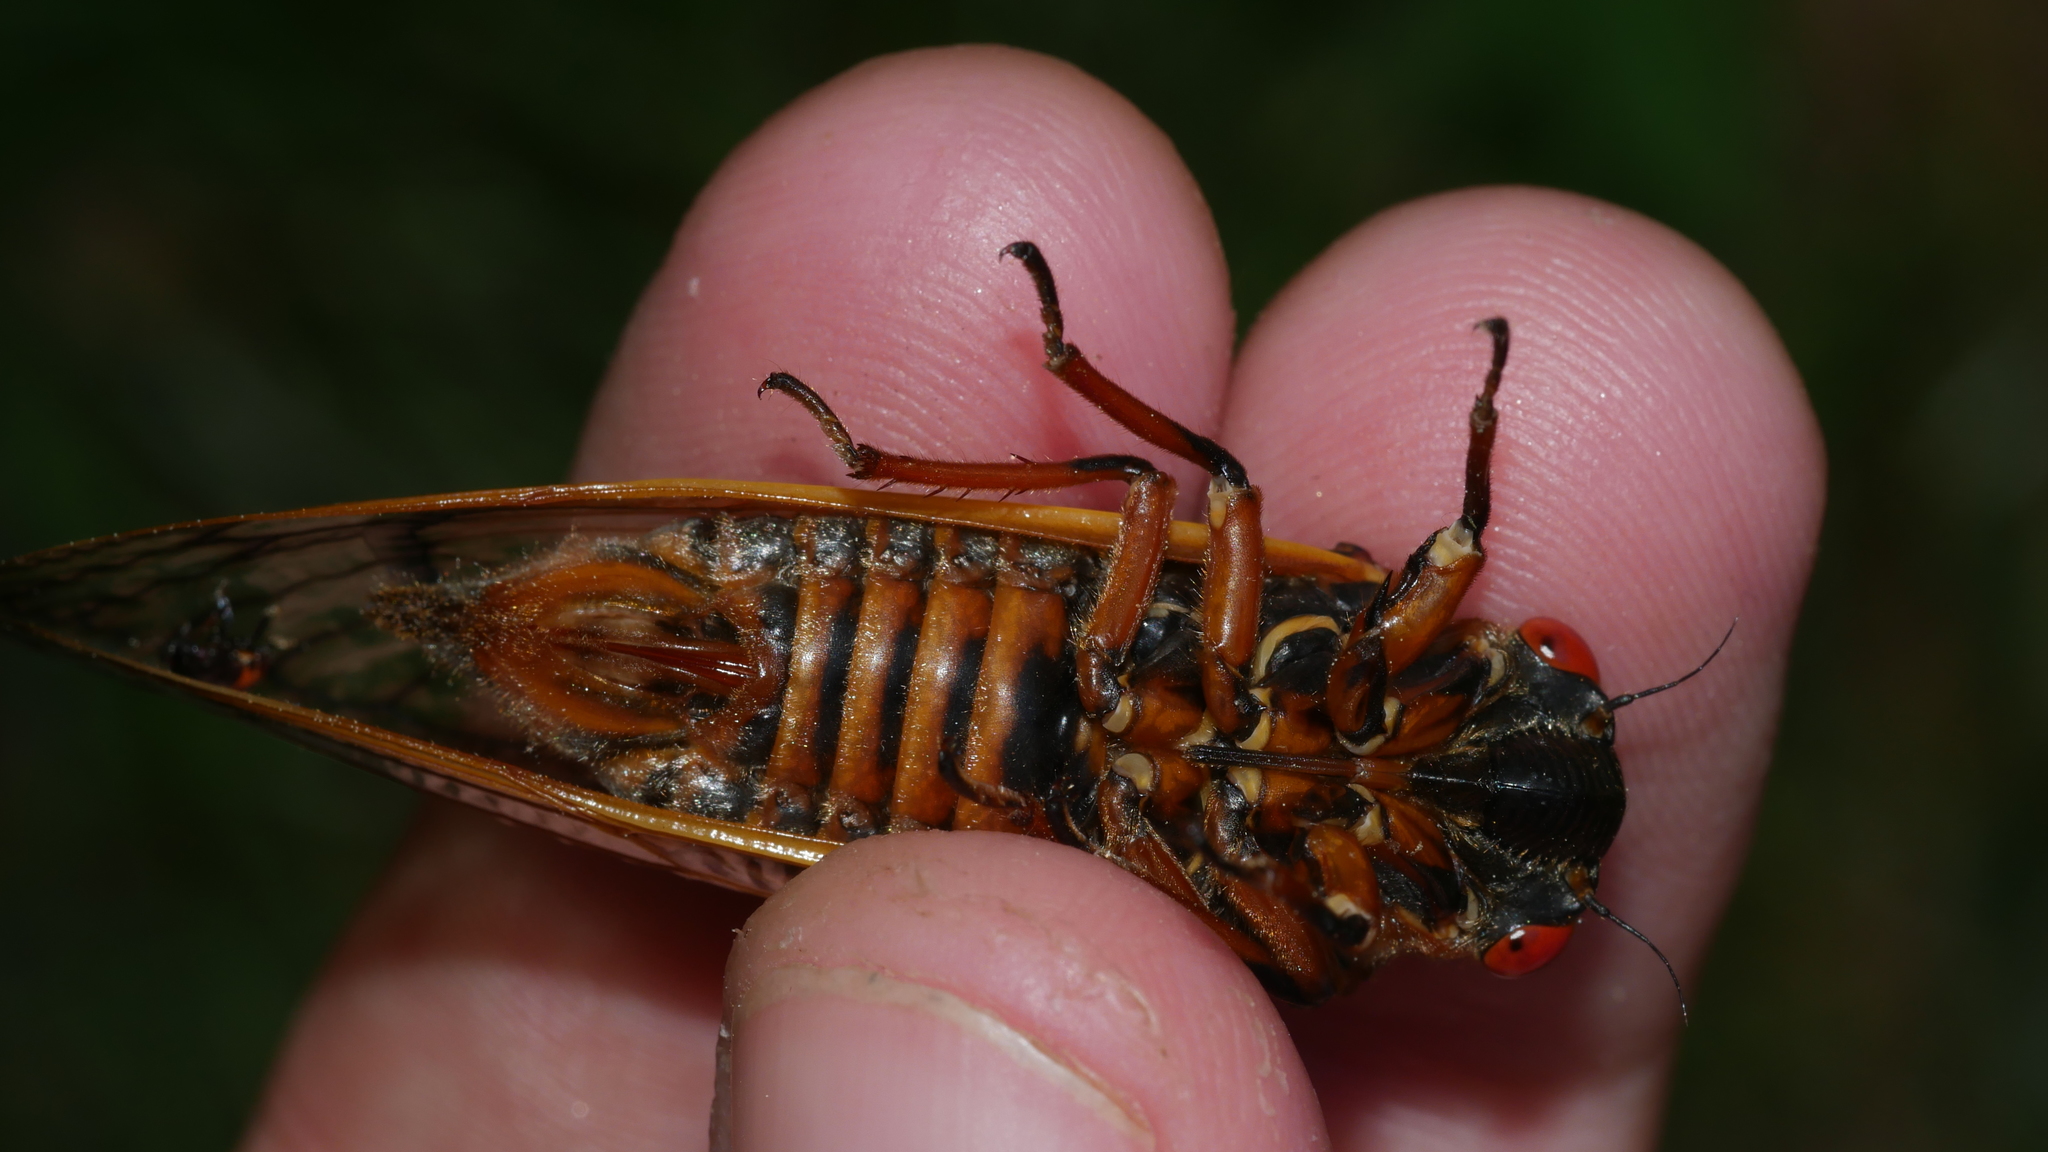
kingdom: Animalia
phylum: Arthropoda
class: Insecta
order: Hemiptera
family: Cicadidae
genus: Magicicada
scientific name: Magicicada septendecim
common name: Periodical cicada
